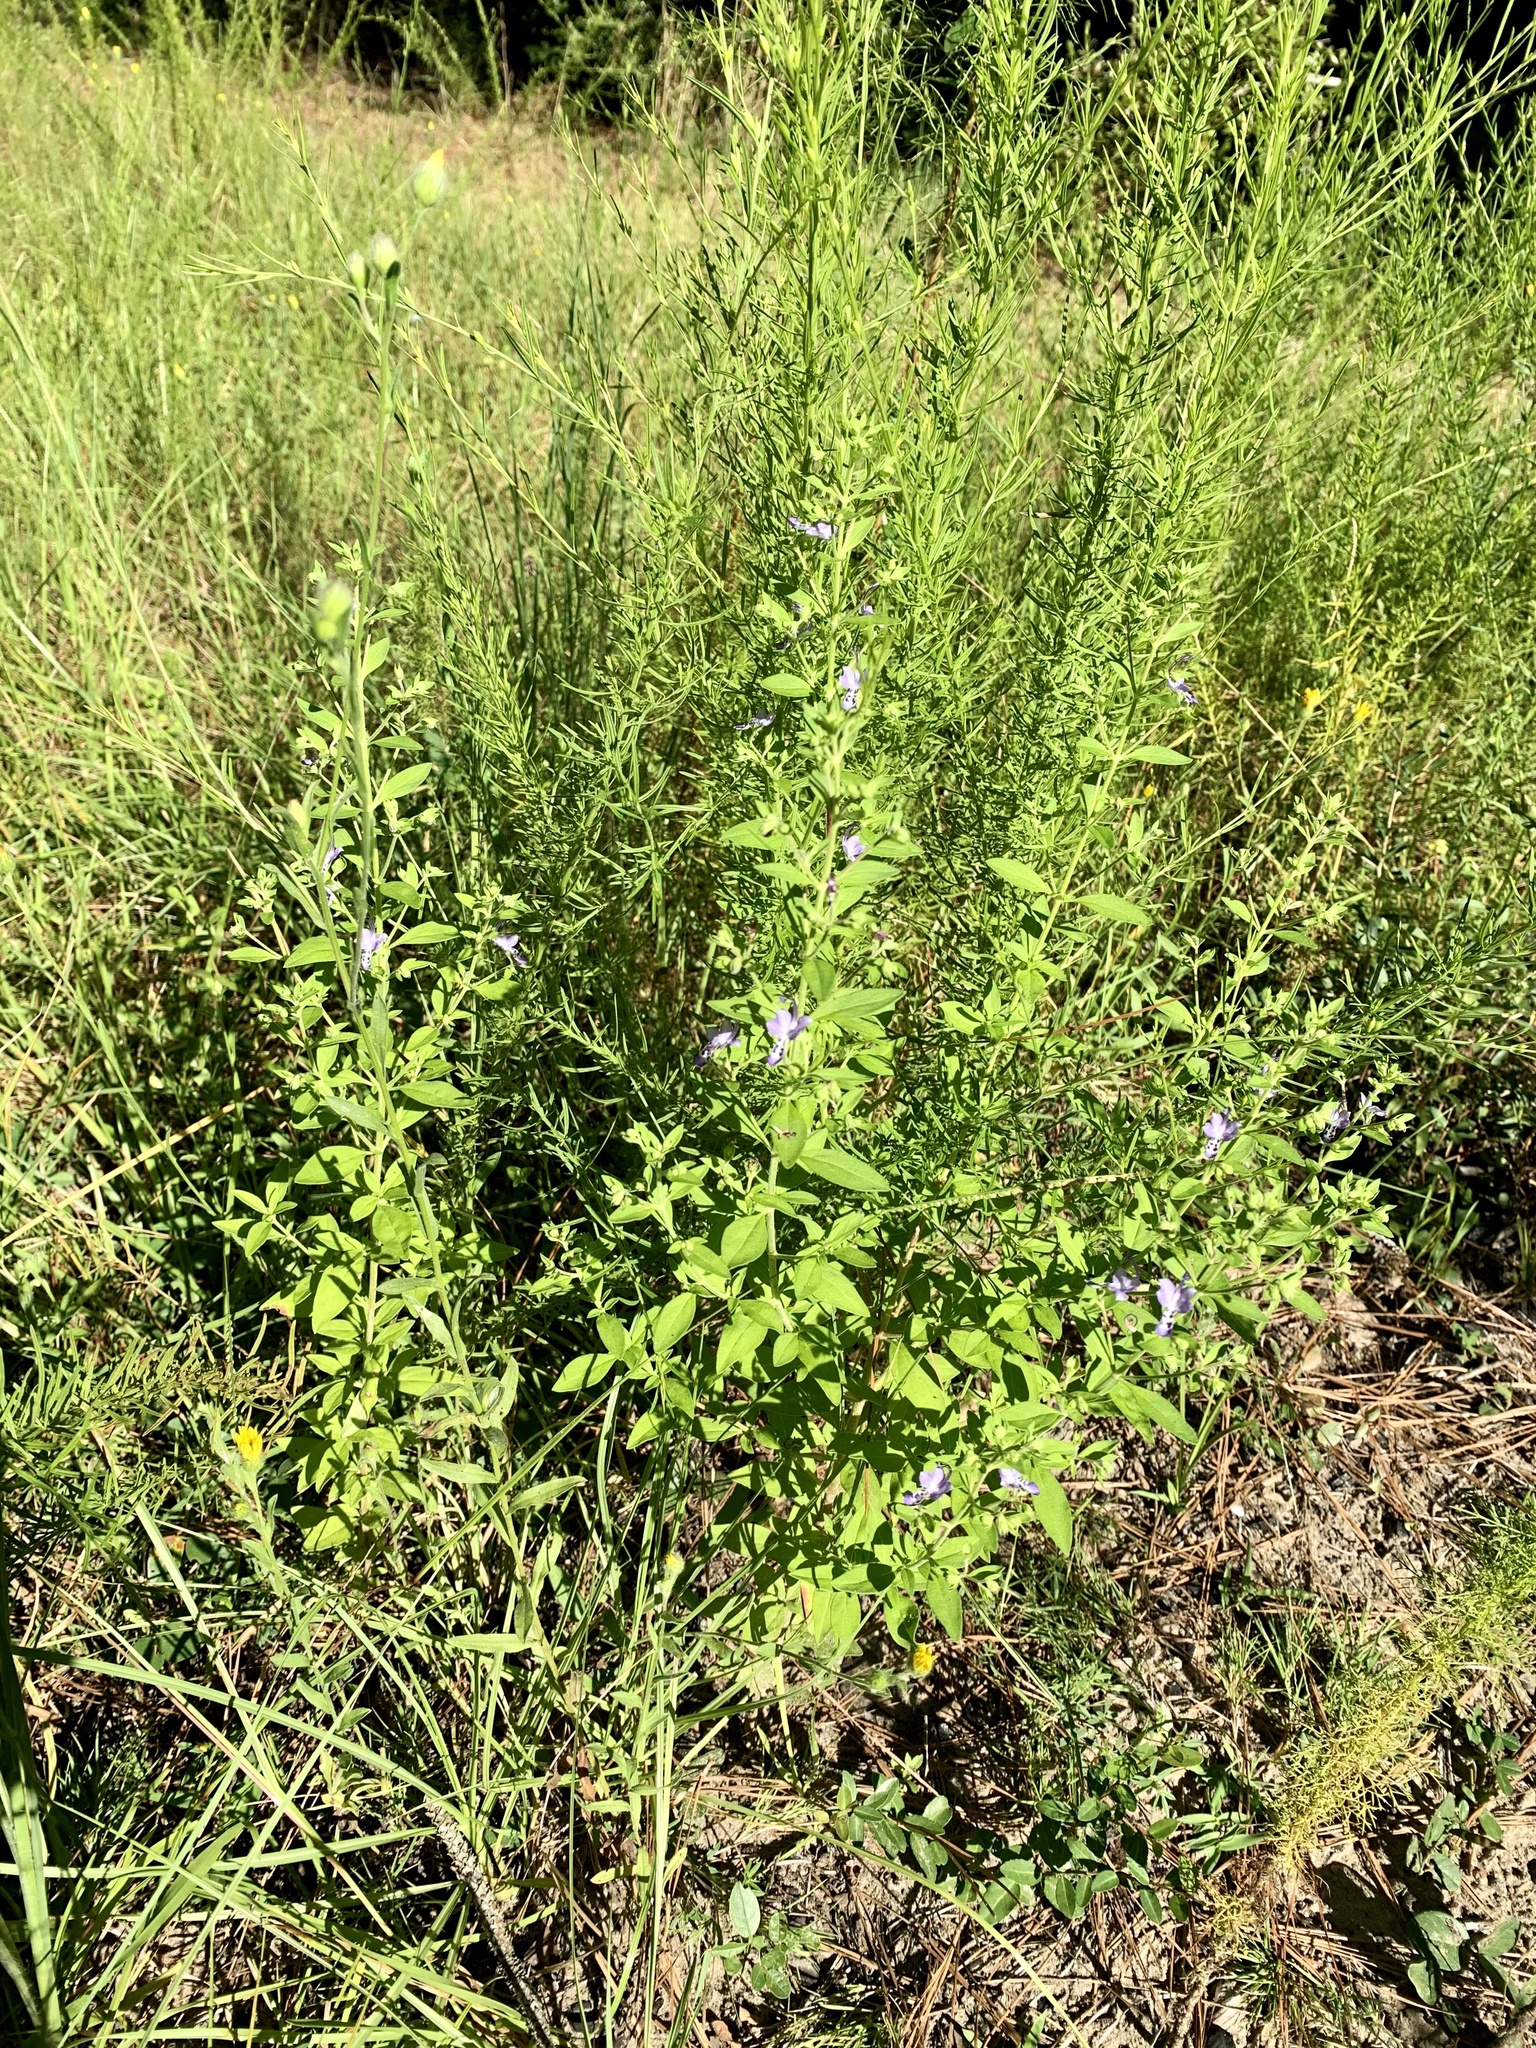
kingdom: Plantae
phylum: Tracheophyta
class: Magnoliopsida
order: Lamiales
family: Lamiaceae
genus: Trichostema
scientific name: Trichostema dichotomum
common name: Bastard pennyroyal
